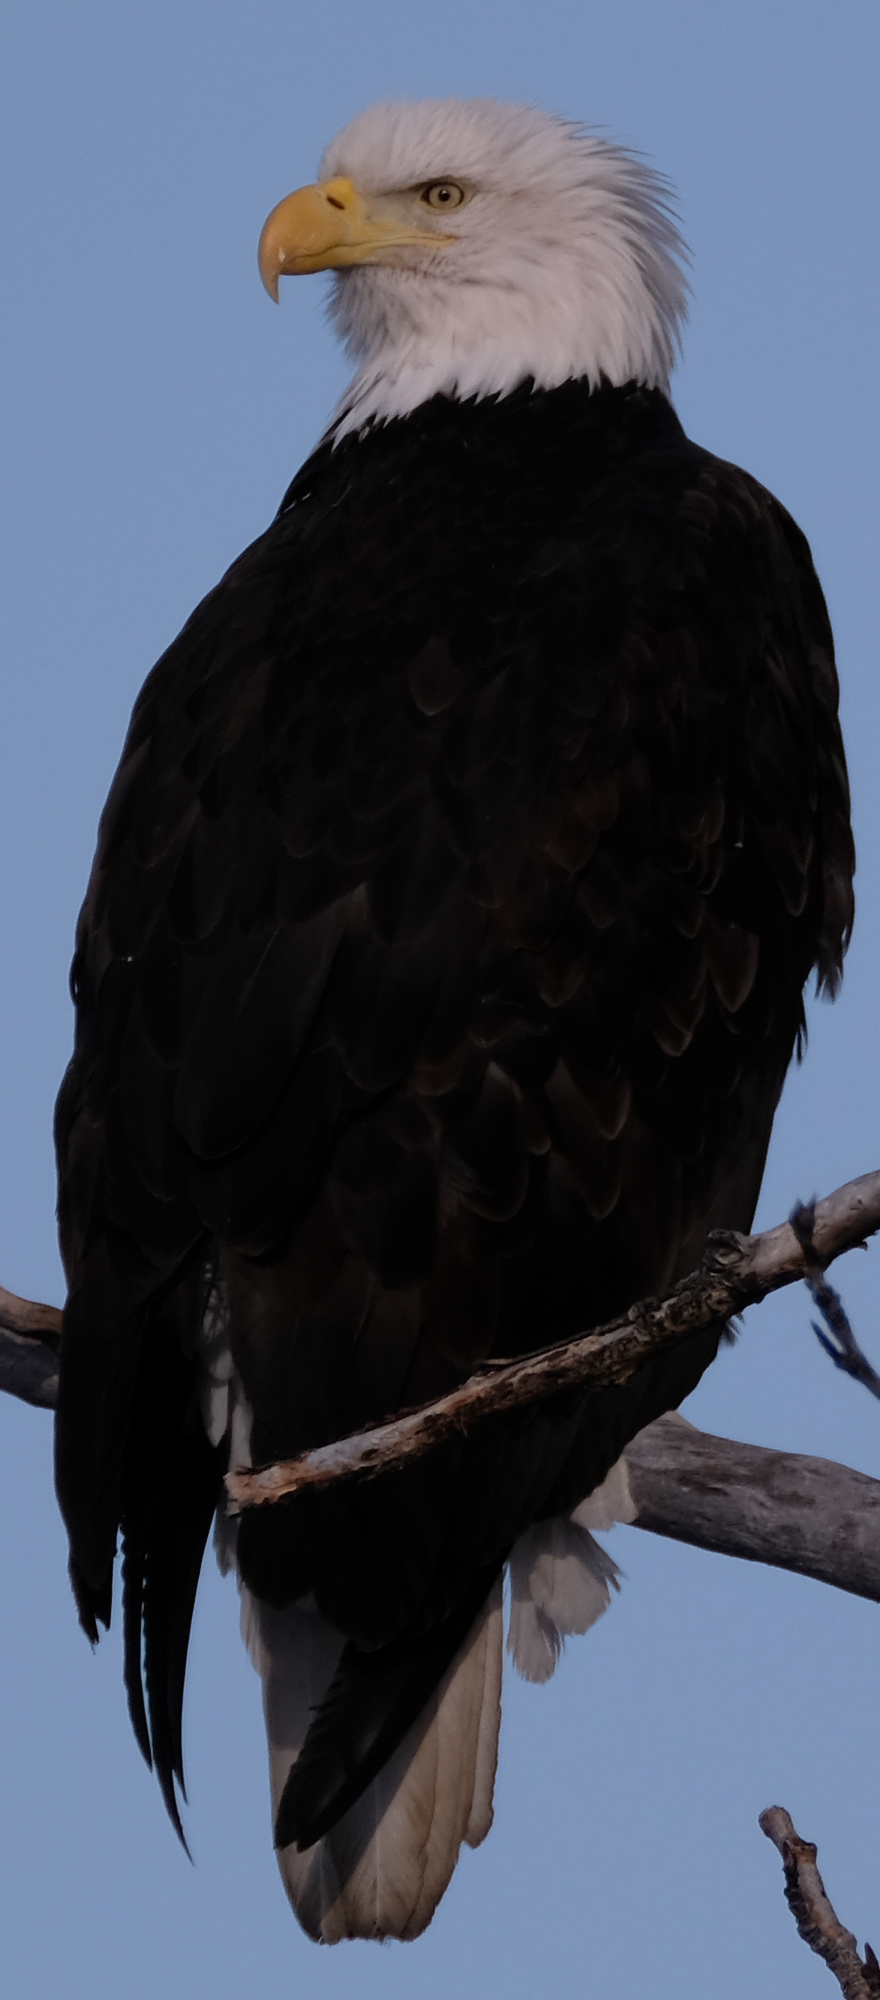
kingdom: Animalia
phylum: Chordata
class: Aves
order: Accipitriformes
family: Accipitridae
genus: Haliaeetus
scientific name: Haliaeetus leucocephalus
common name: Bald eagle
